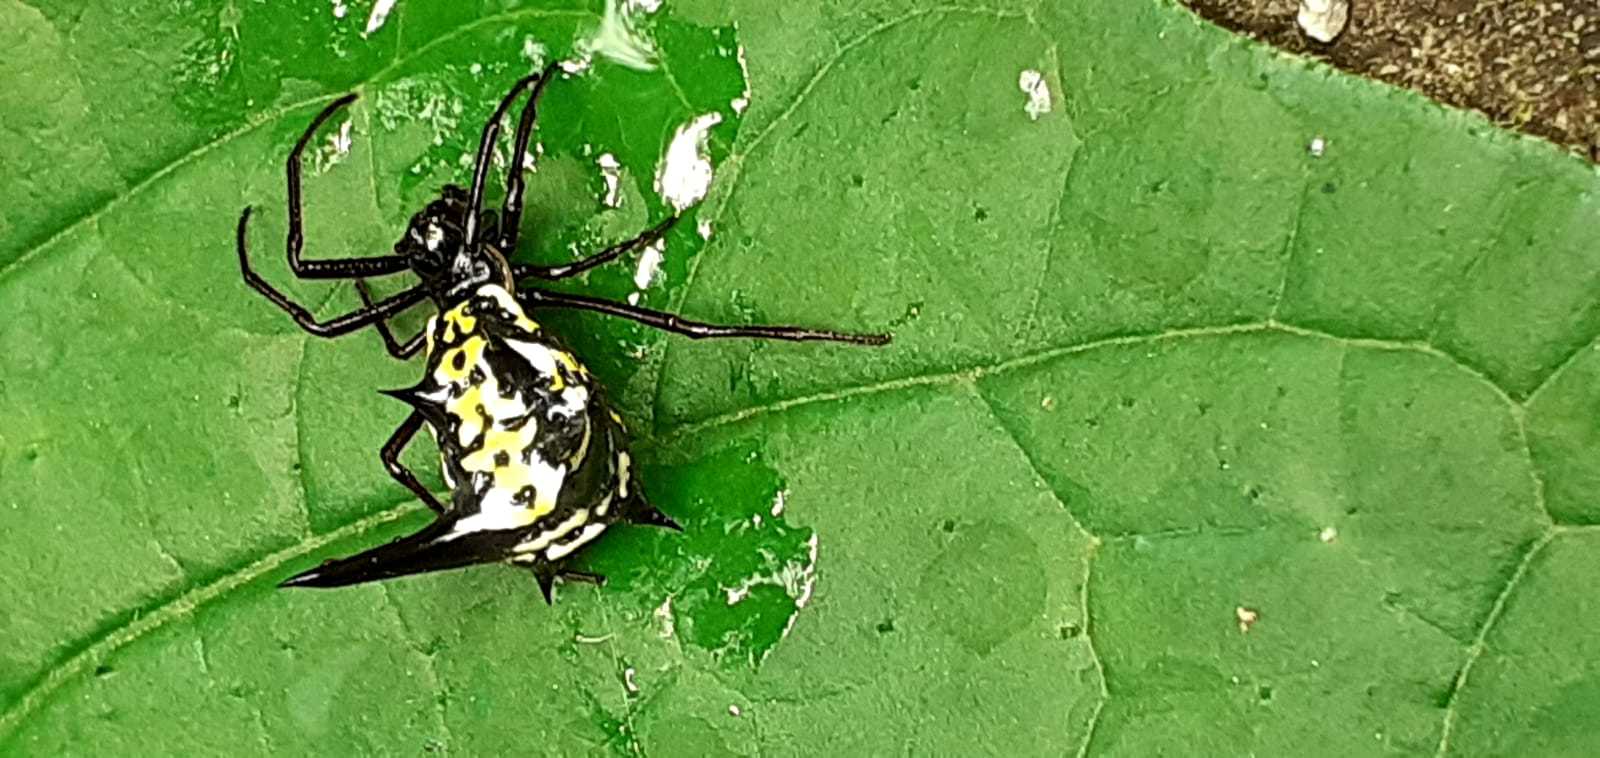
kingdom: Animalia
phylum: Arthropoda
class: Arachnida
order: Araneae
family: Araneidae
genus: Micrathena
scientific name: Micrathena raimondi
